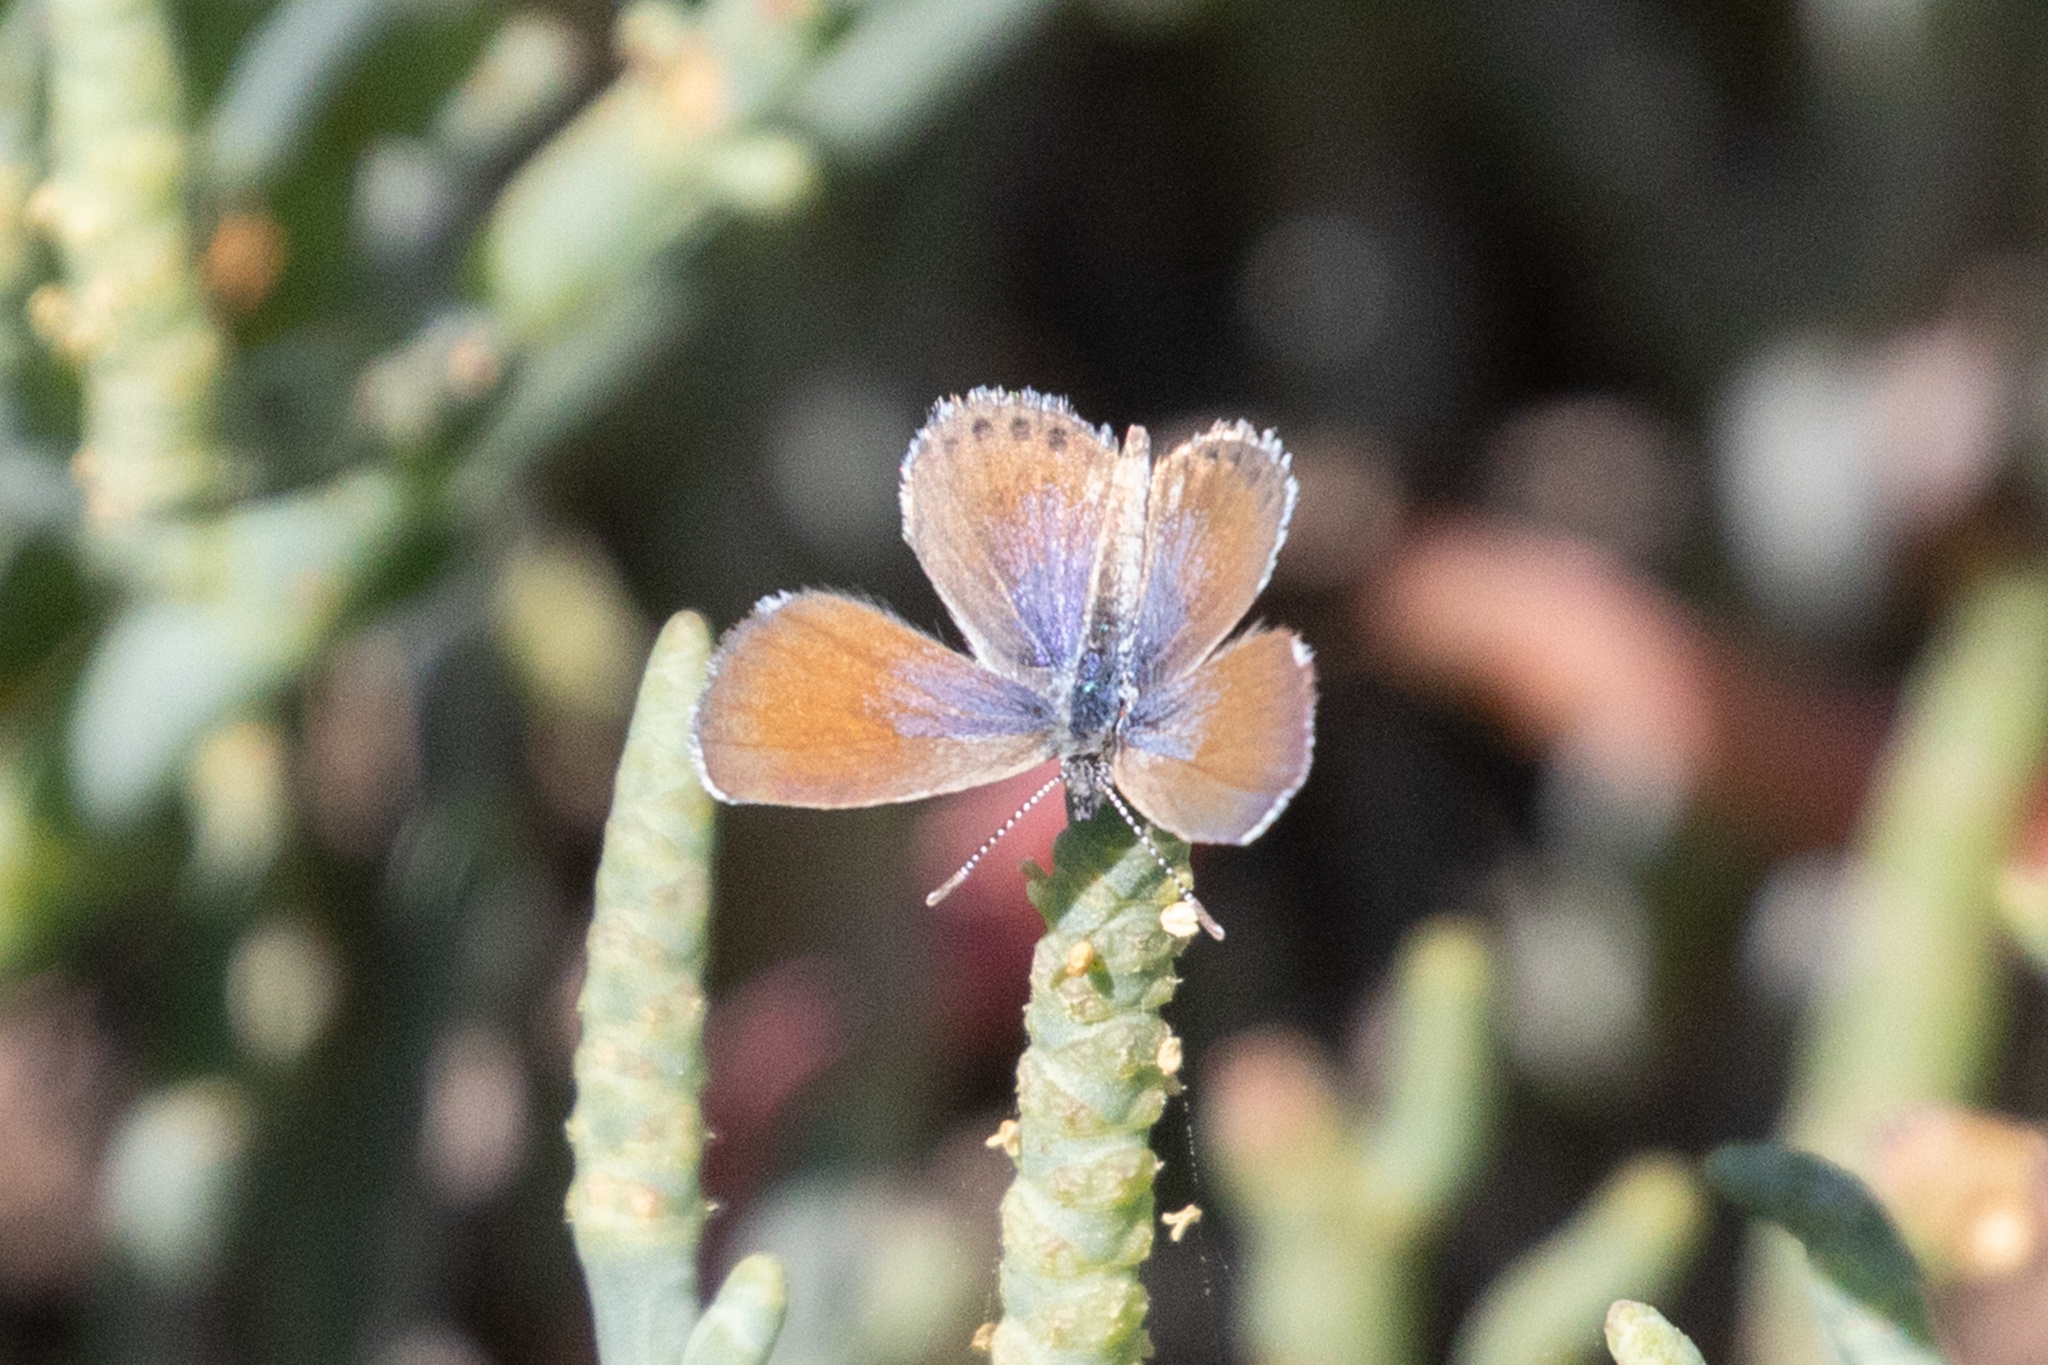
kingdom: Animalia
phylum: Arthropoda
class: Insecta
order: Lepidoptera
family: Lycaenidae
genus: Brephidium
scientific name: Brephidium exilis
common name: Pygmy blue
